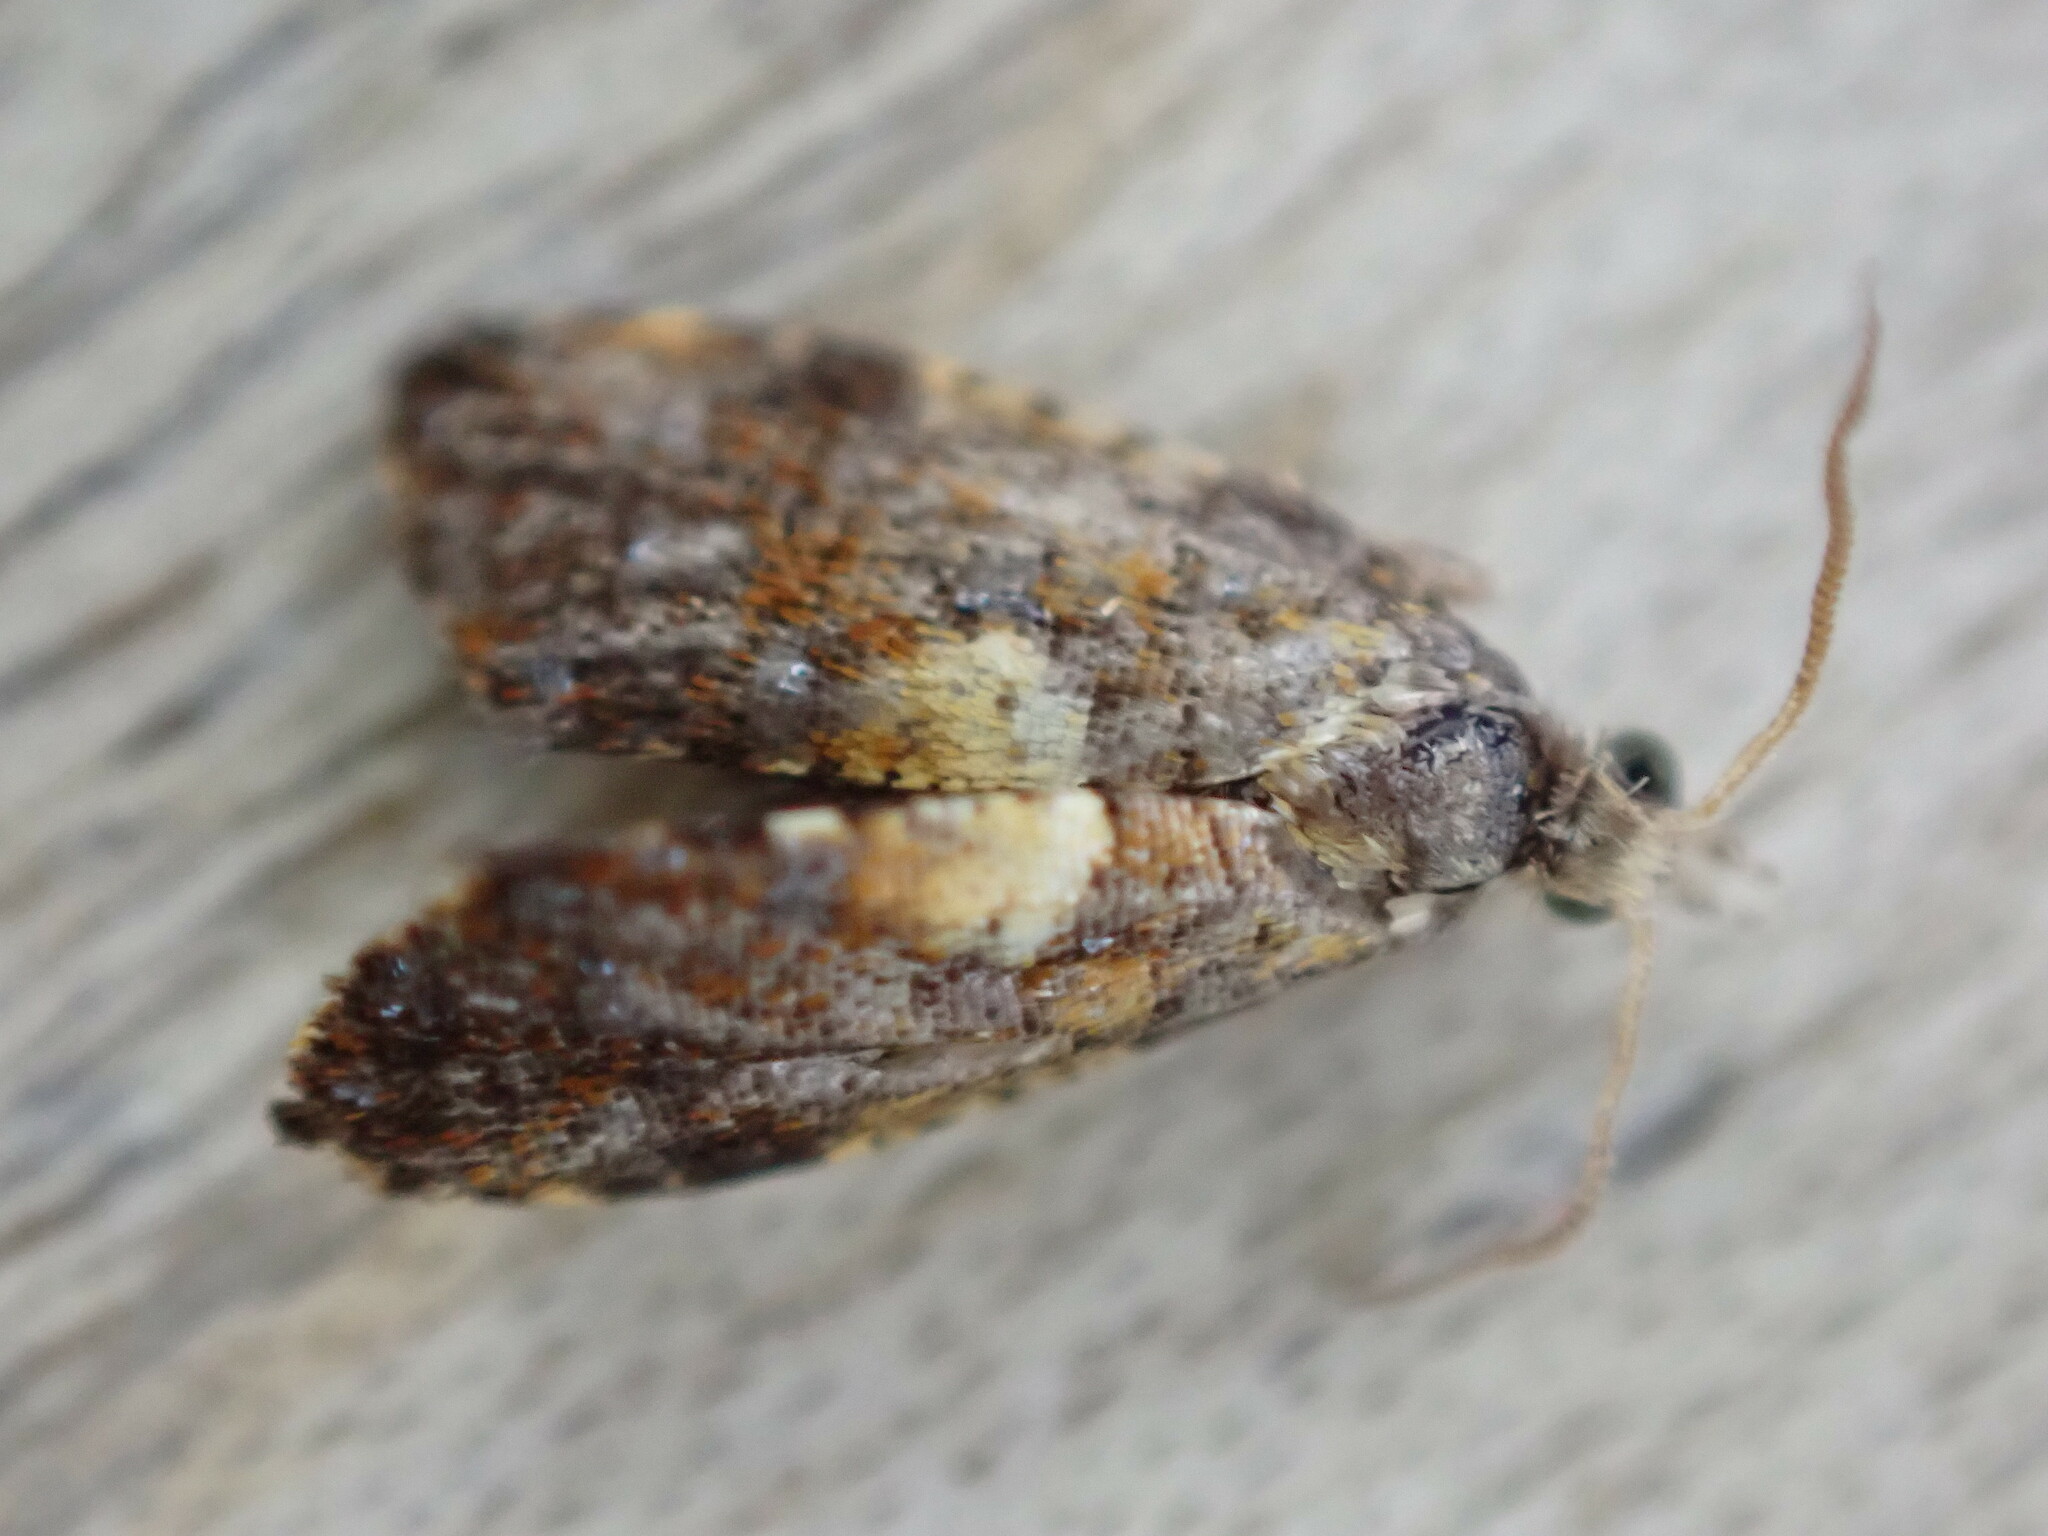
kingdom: Animalia
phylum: Arthropoda
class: Insecta
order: Lepidoptera
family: Tortricidae
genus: Pseudargyrotoza
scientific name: Pseudargyrotoza conwagana
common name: Yellow-spot twist
